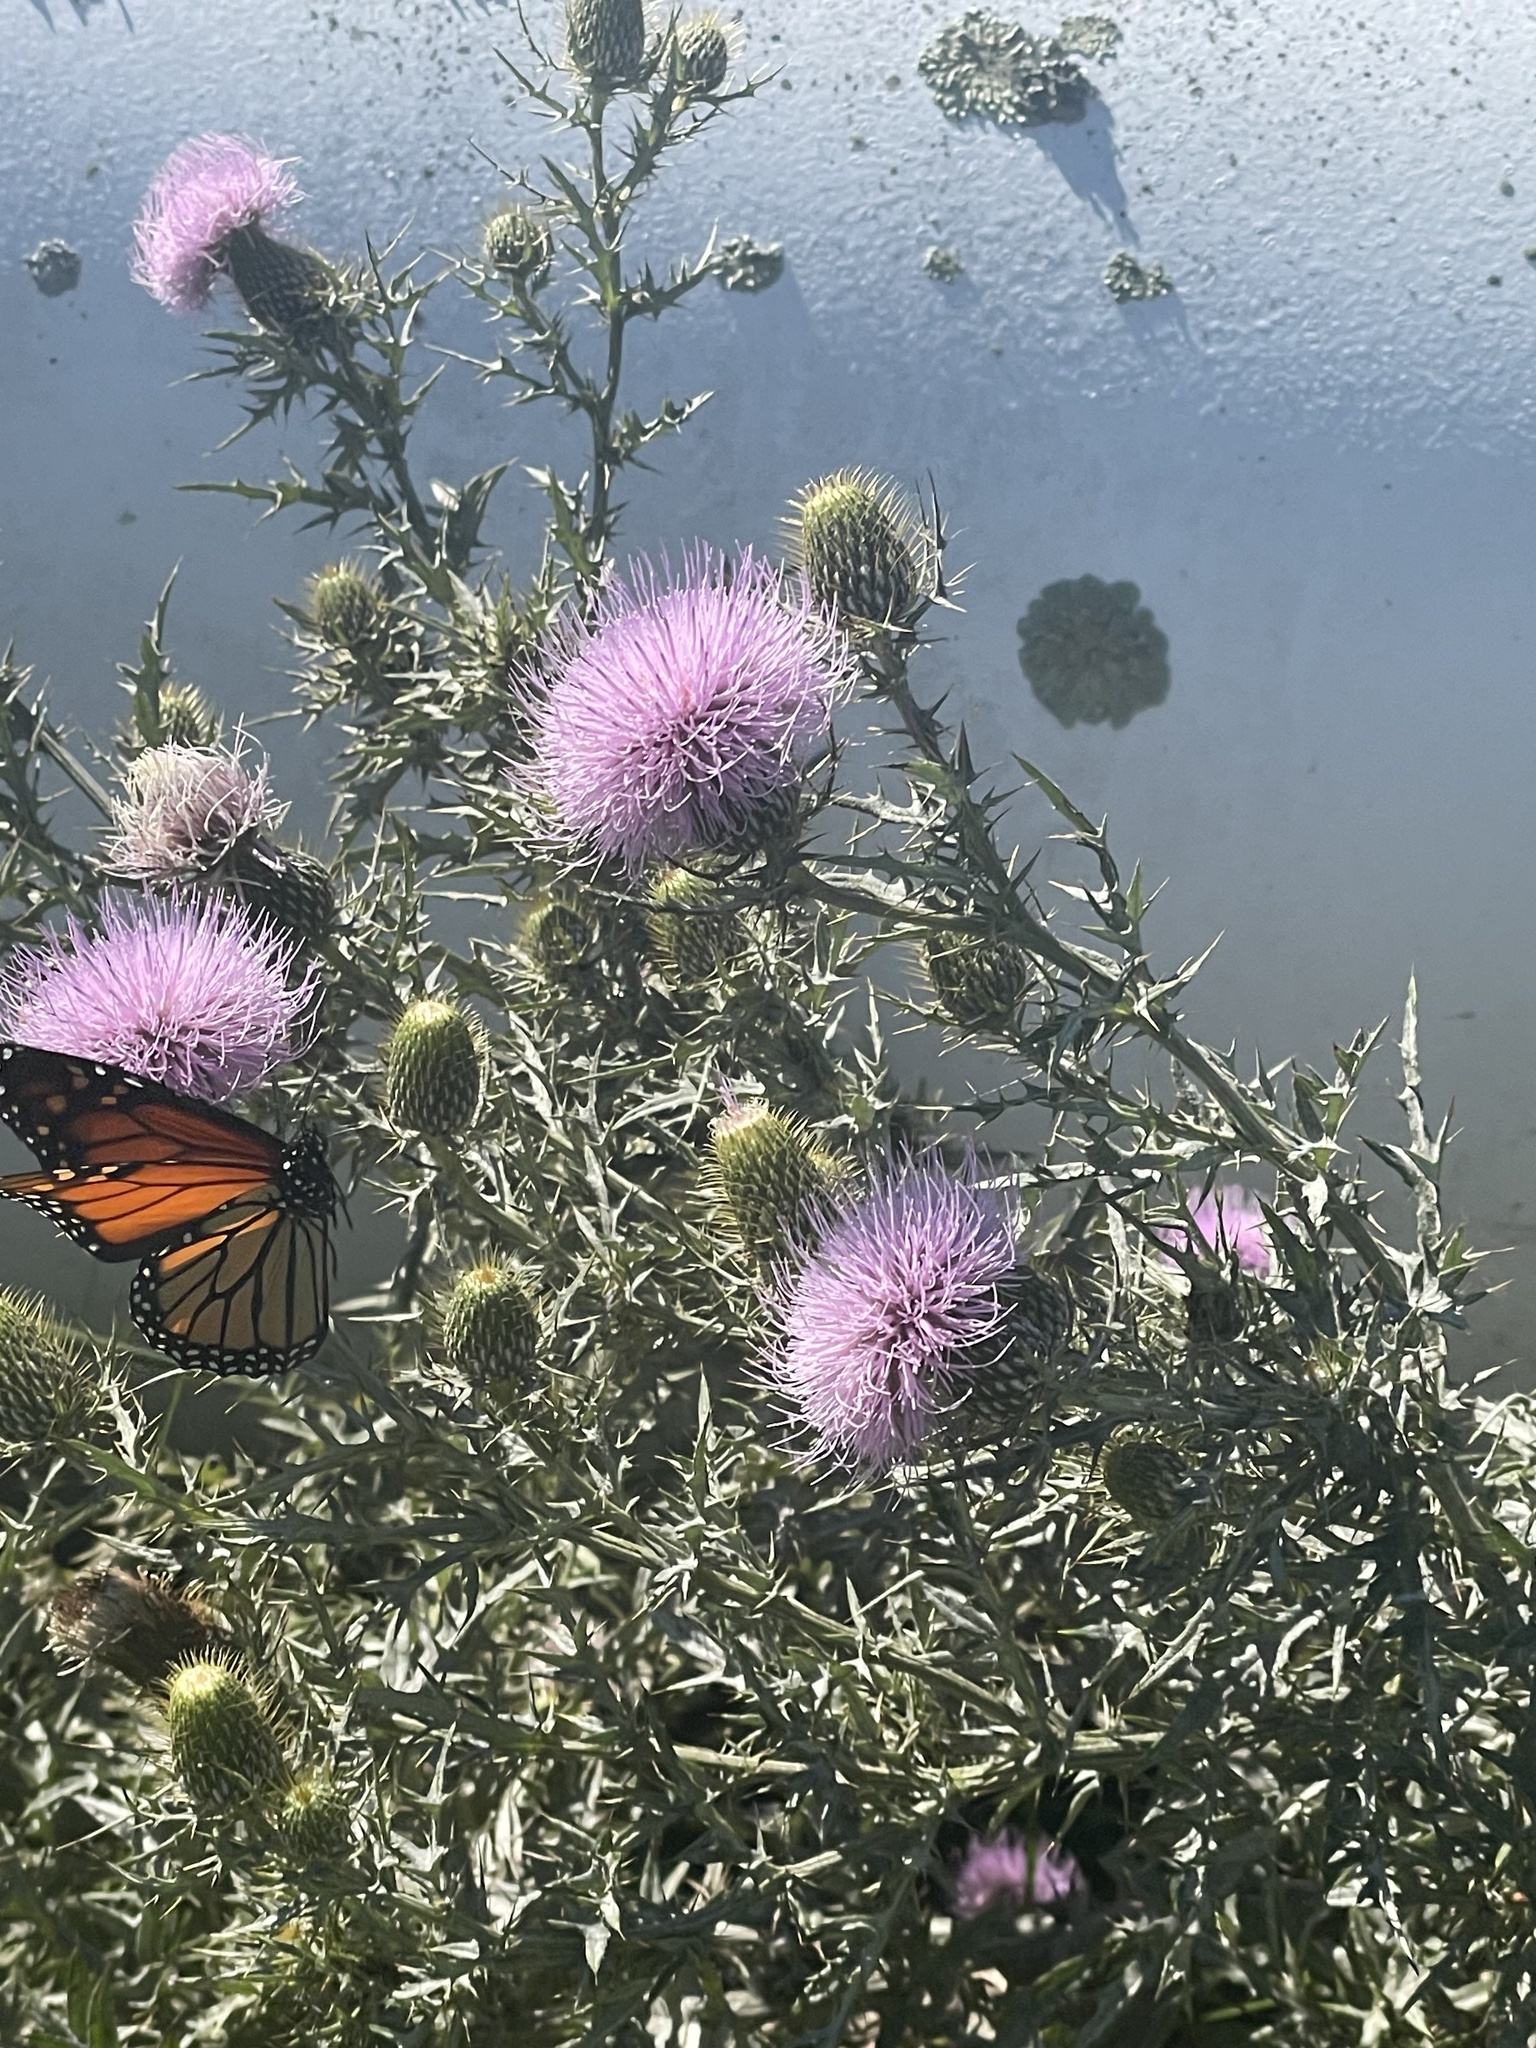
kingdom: Animalia
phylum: Arthropoda
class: Insecta
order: Lepidoptera
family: Nymphalidae
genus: Danaus
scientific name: Danaus plexippus
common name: Monarch
